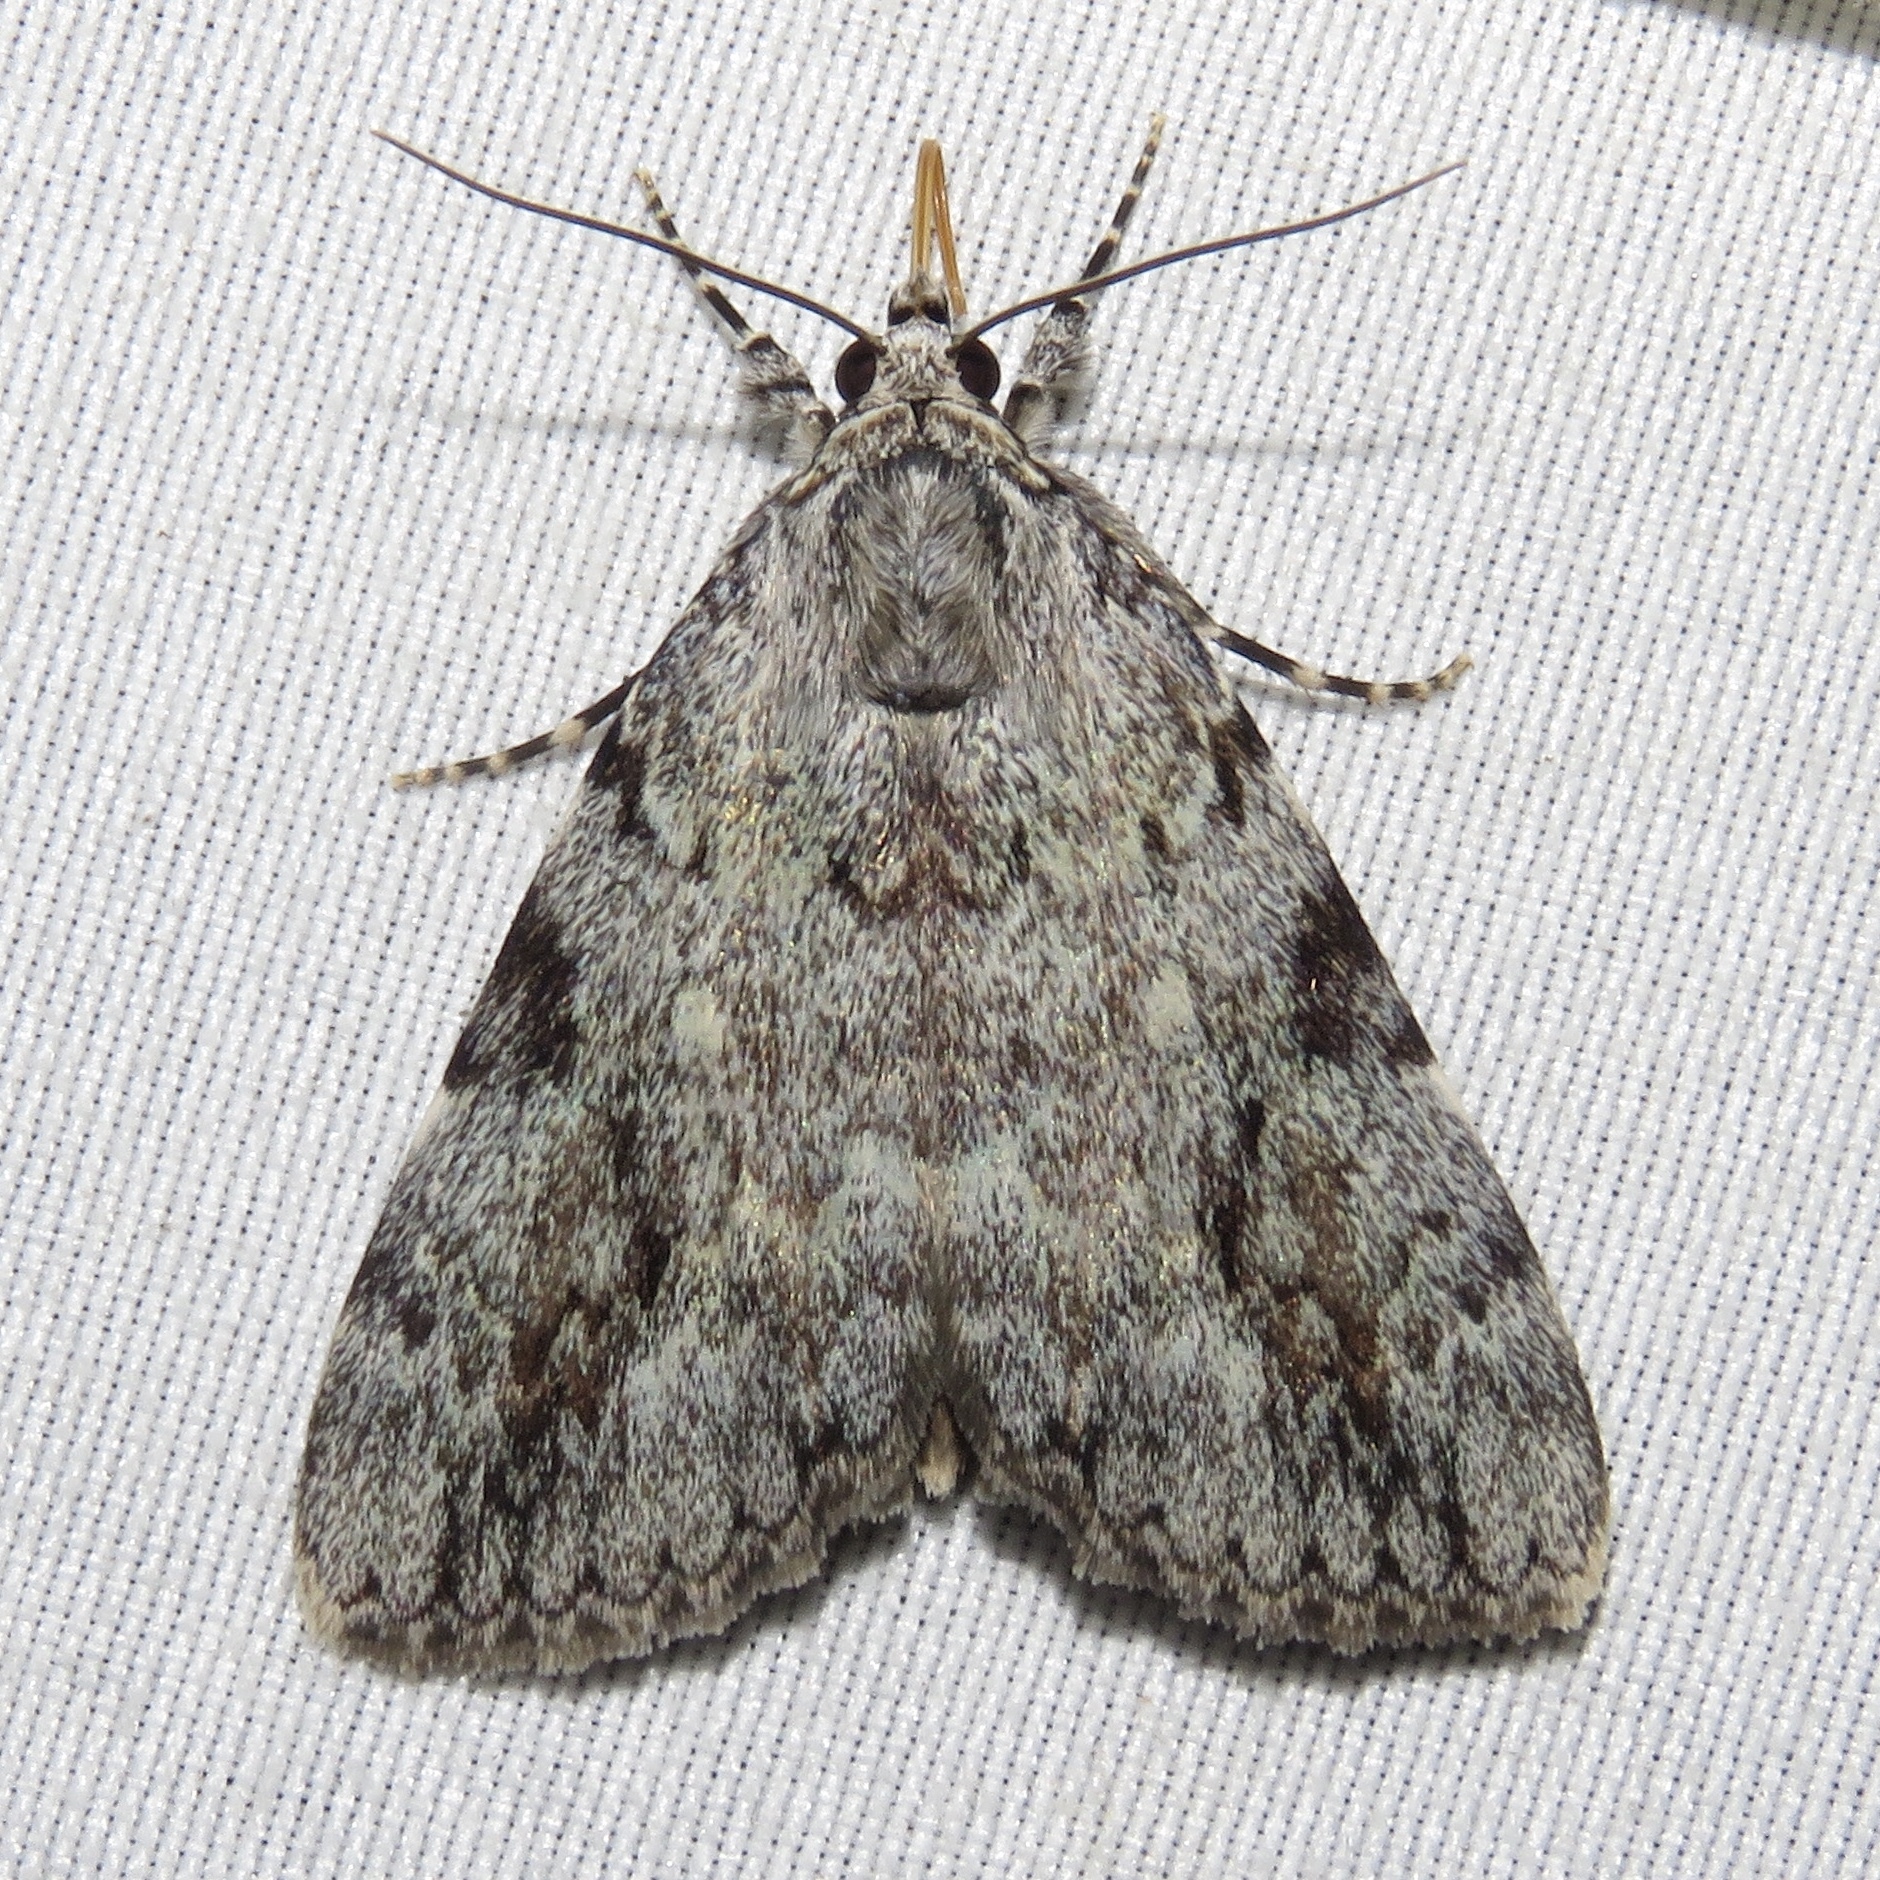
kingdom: Animalia
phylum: Arthropoda
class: Insecta
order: Lepidoptera
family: Erebidae
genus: Catocala
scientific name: Catocala amica
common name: Girlfriend underwing
